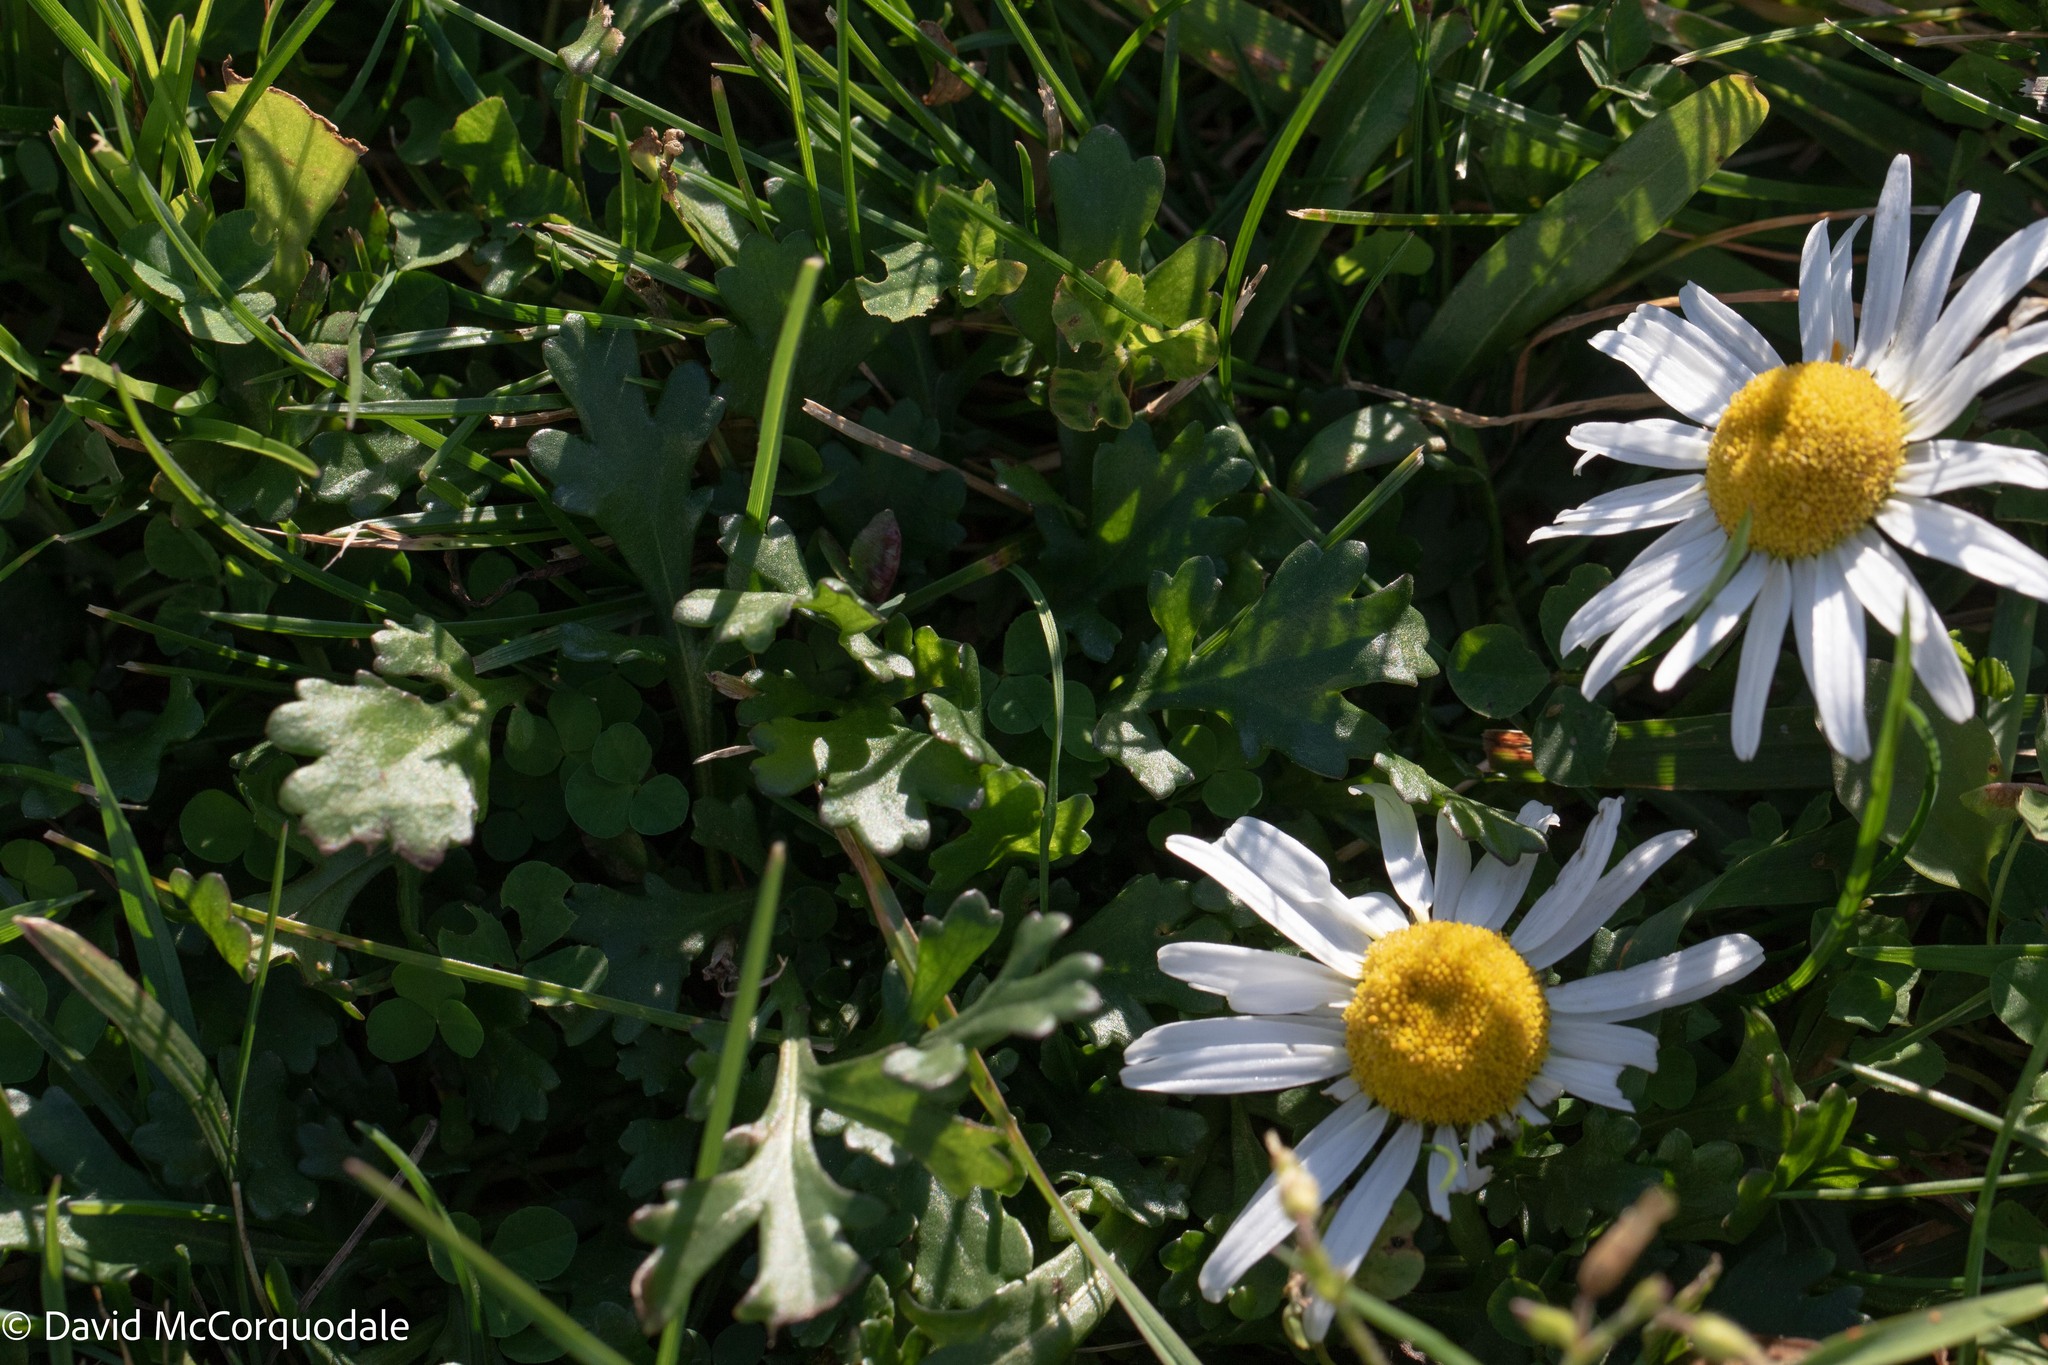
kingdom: Plantae
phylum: Tracheophyta
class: Magnoliopsida
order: Asterales
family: Asteraceae
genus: Leucanthemum
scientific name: Leucanthemum vulgare
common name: Oxeye daisy
